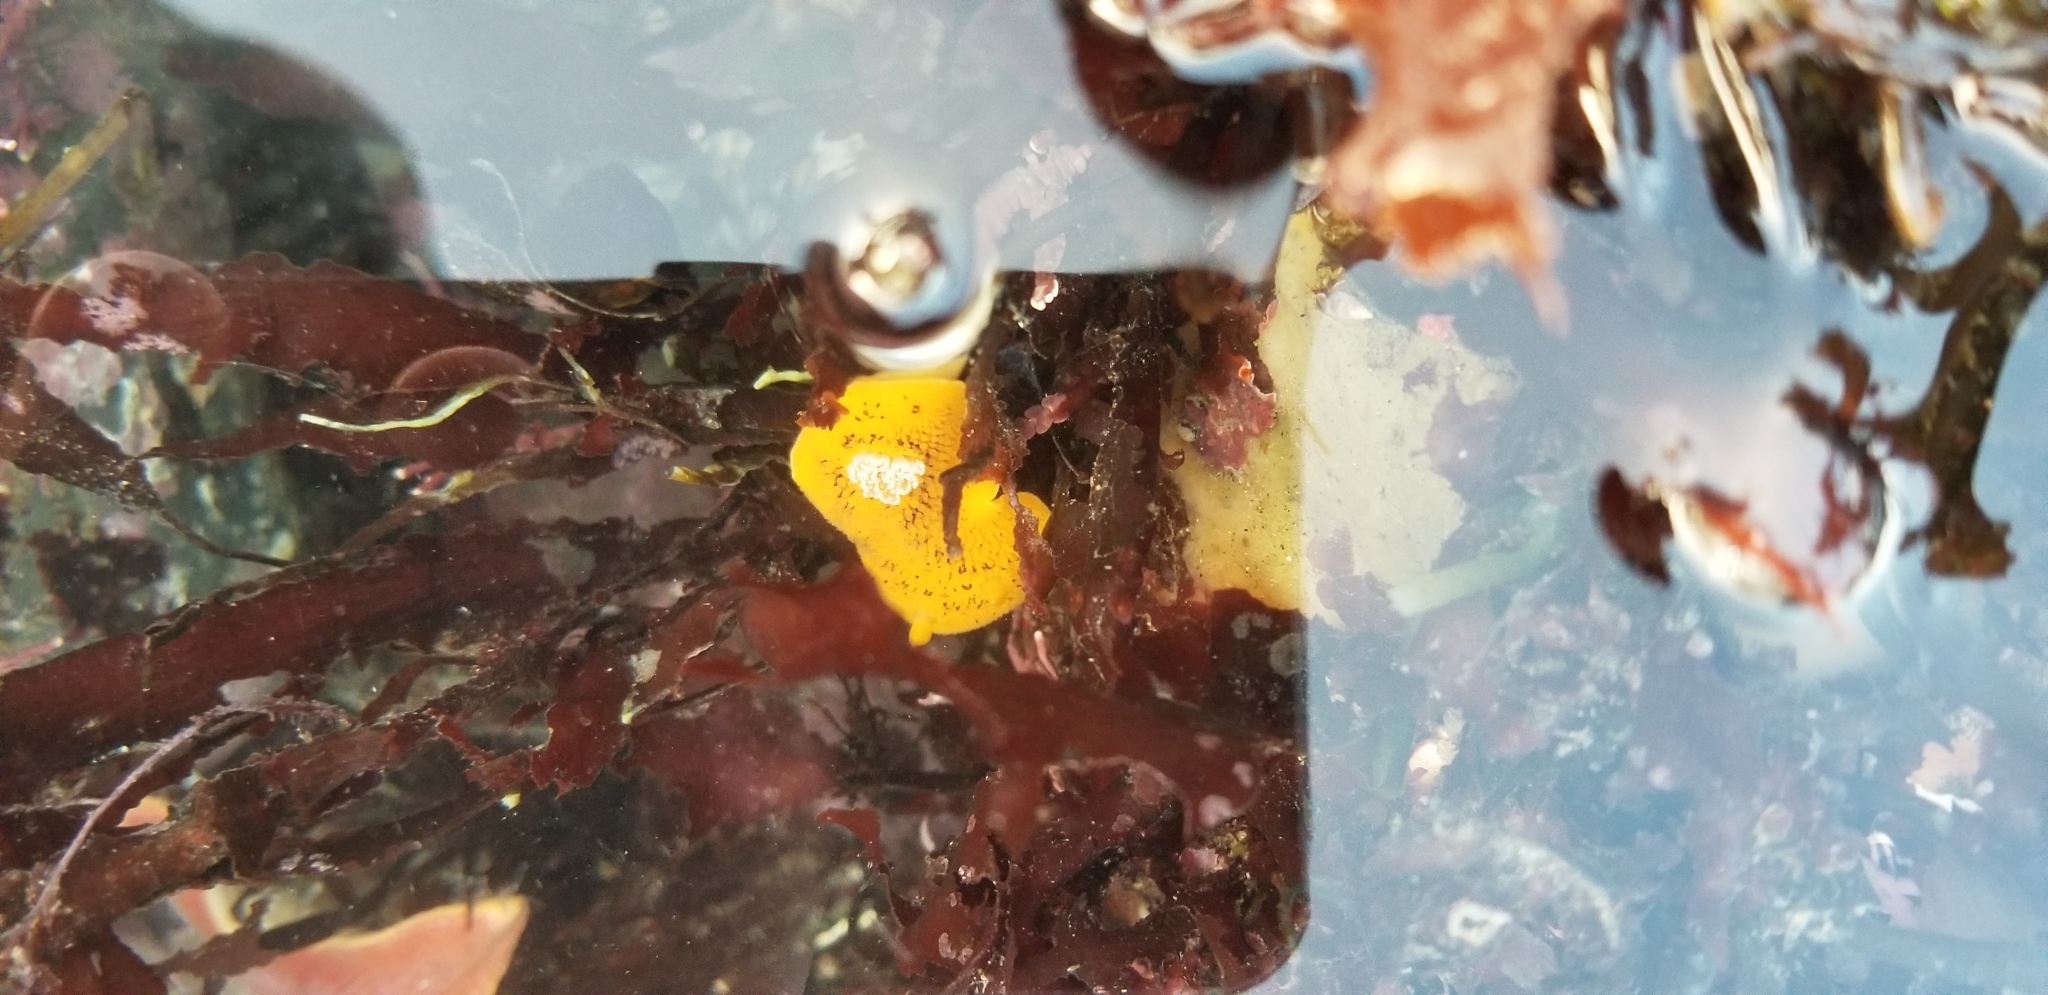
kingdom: Animalia
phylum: Mollusca
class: Gastropoda
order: Nudibranchia
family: Discodorididae
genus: Peltodoris
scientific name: Peltodoris nobilis
